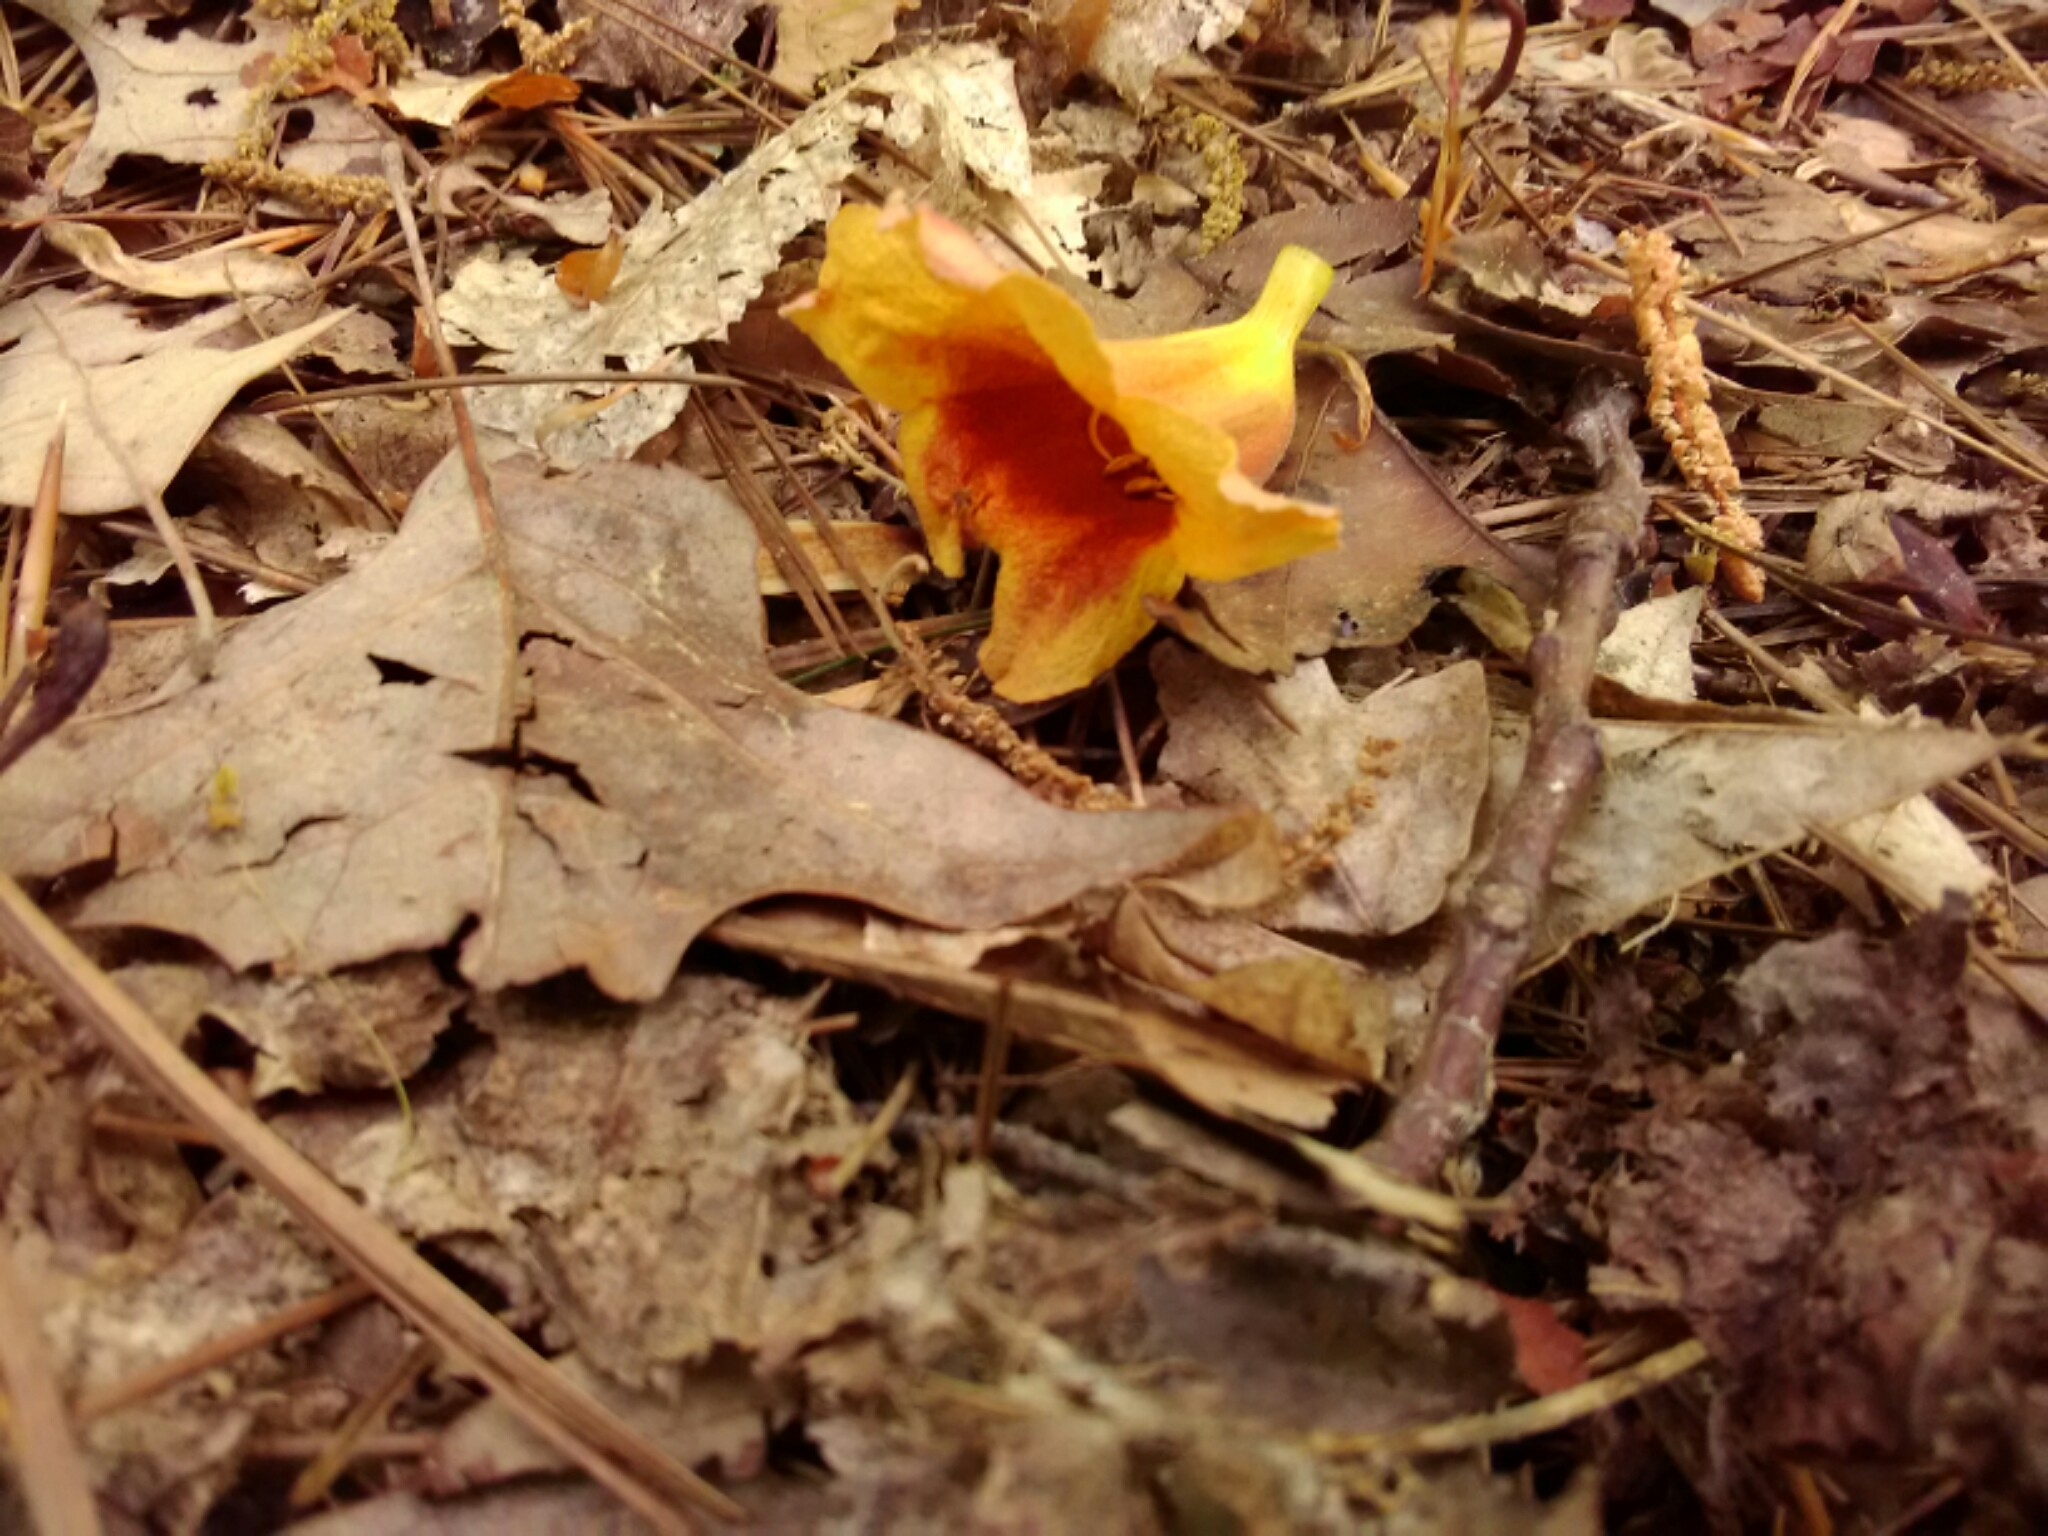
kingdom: Plantae
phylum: Tracheophyta
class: Magnoliopsida
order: Lamiales
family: Bignoniaceae
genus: Bignonia
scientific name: Bignonia capreolata
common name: Crossvine
